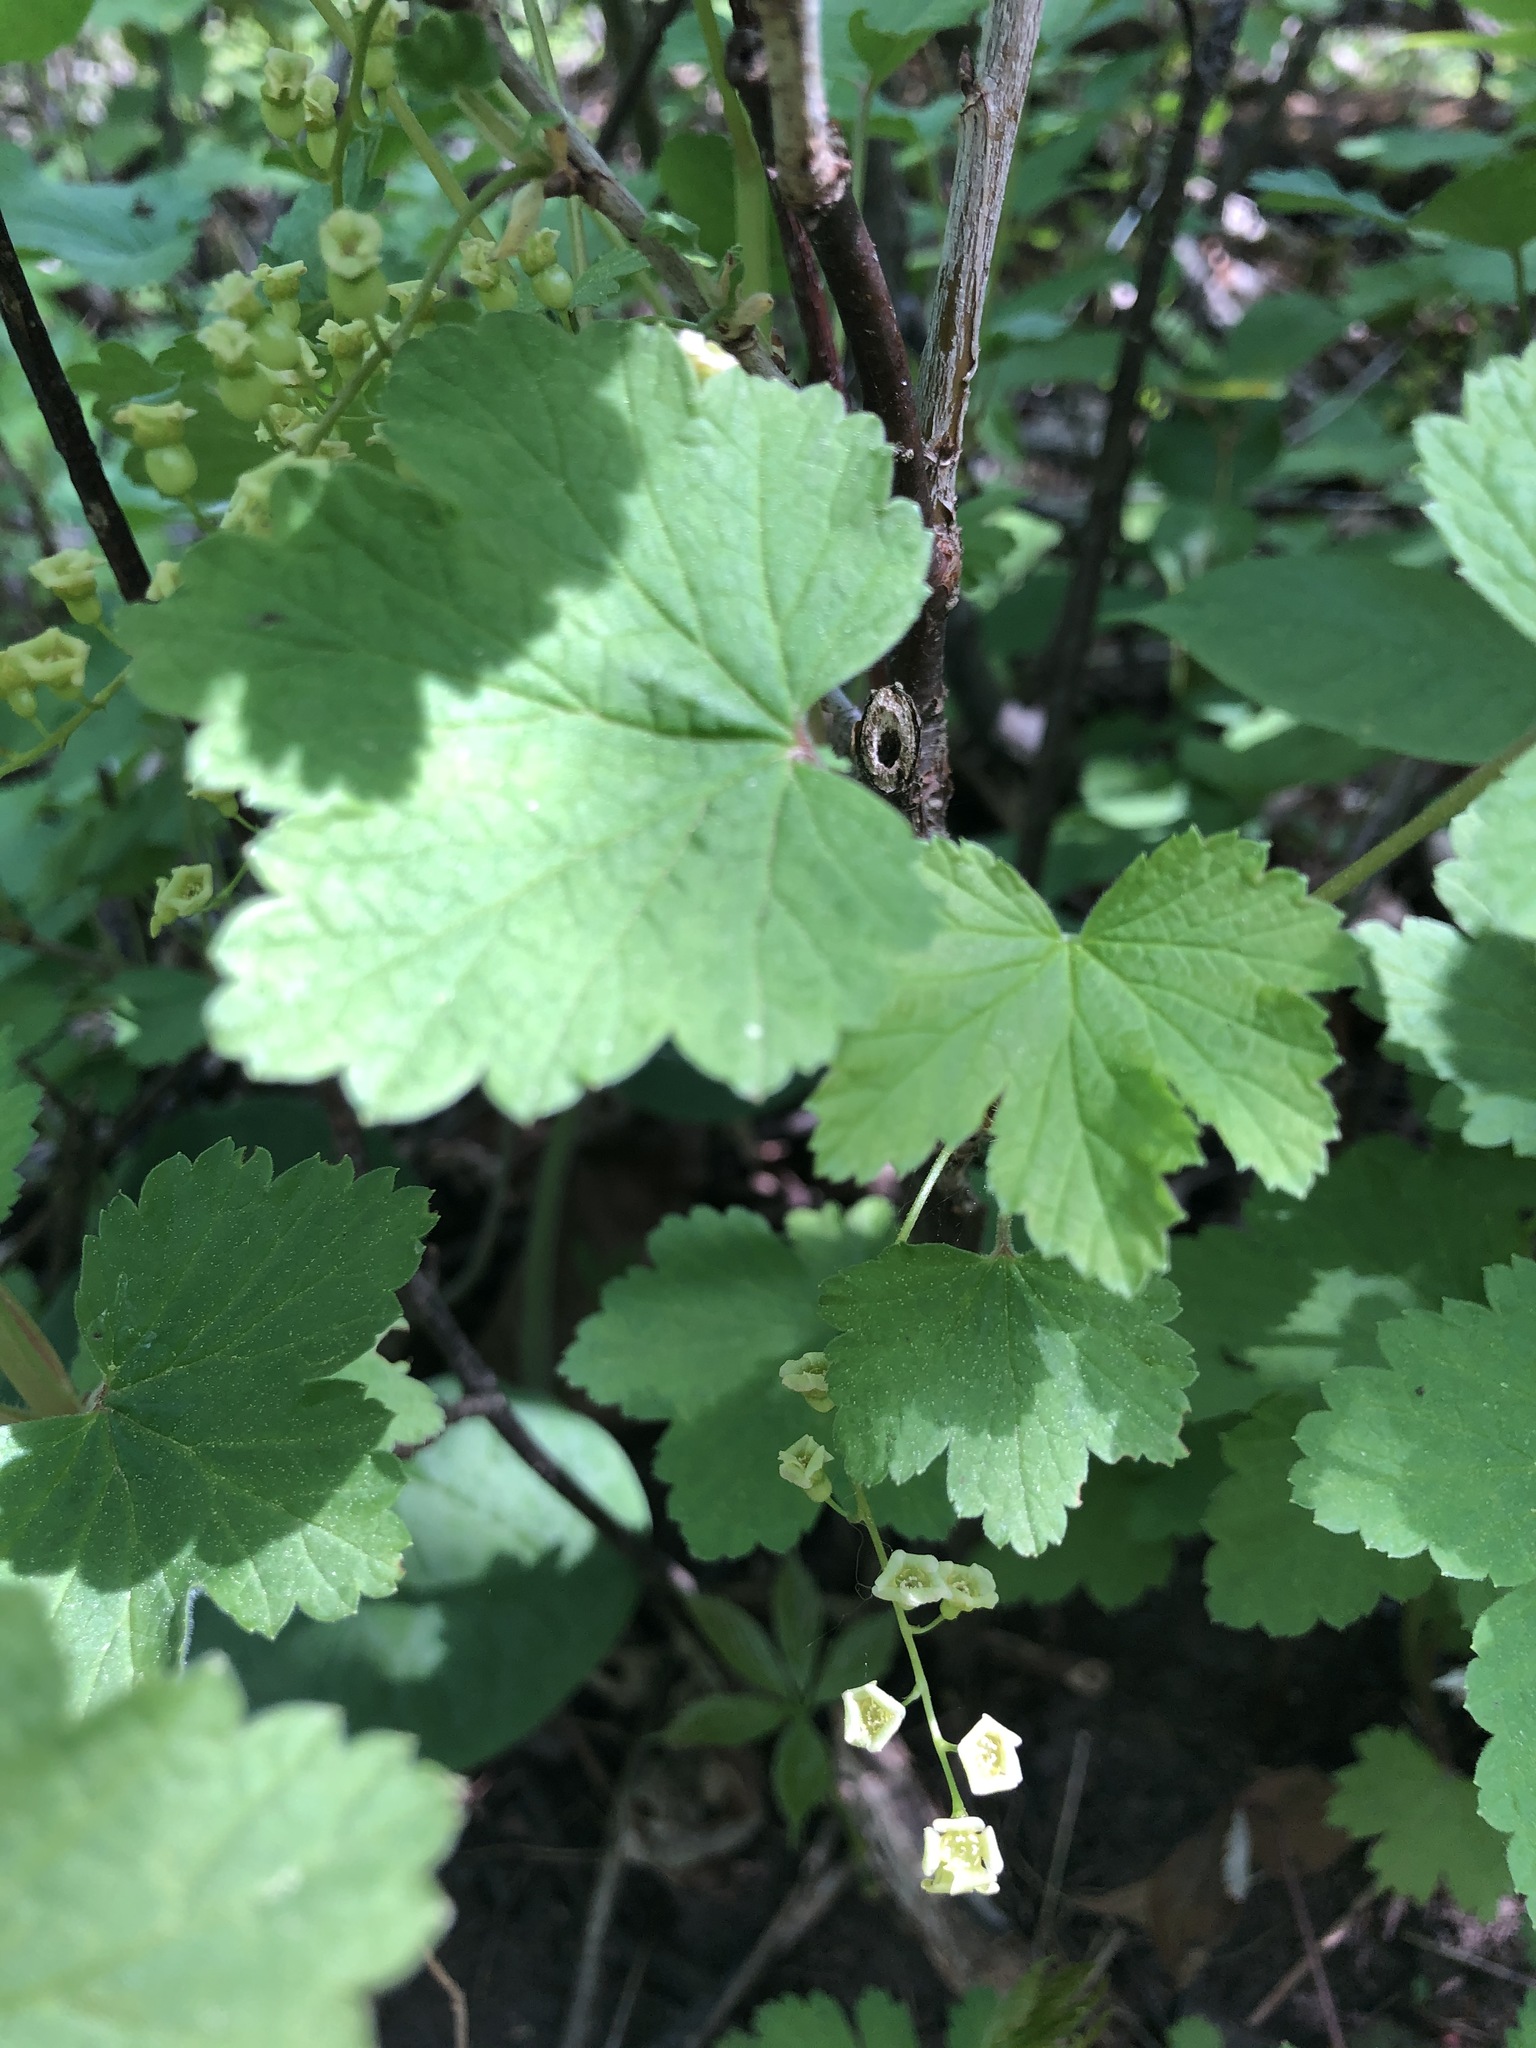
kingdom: Plantae
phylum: Tracheophyta
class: Magnoliopsida
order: Saxifragales
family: Grossulariaceae
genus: Ribes
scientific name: Ribes rubrum
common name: Red currant
